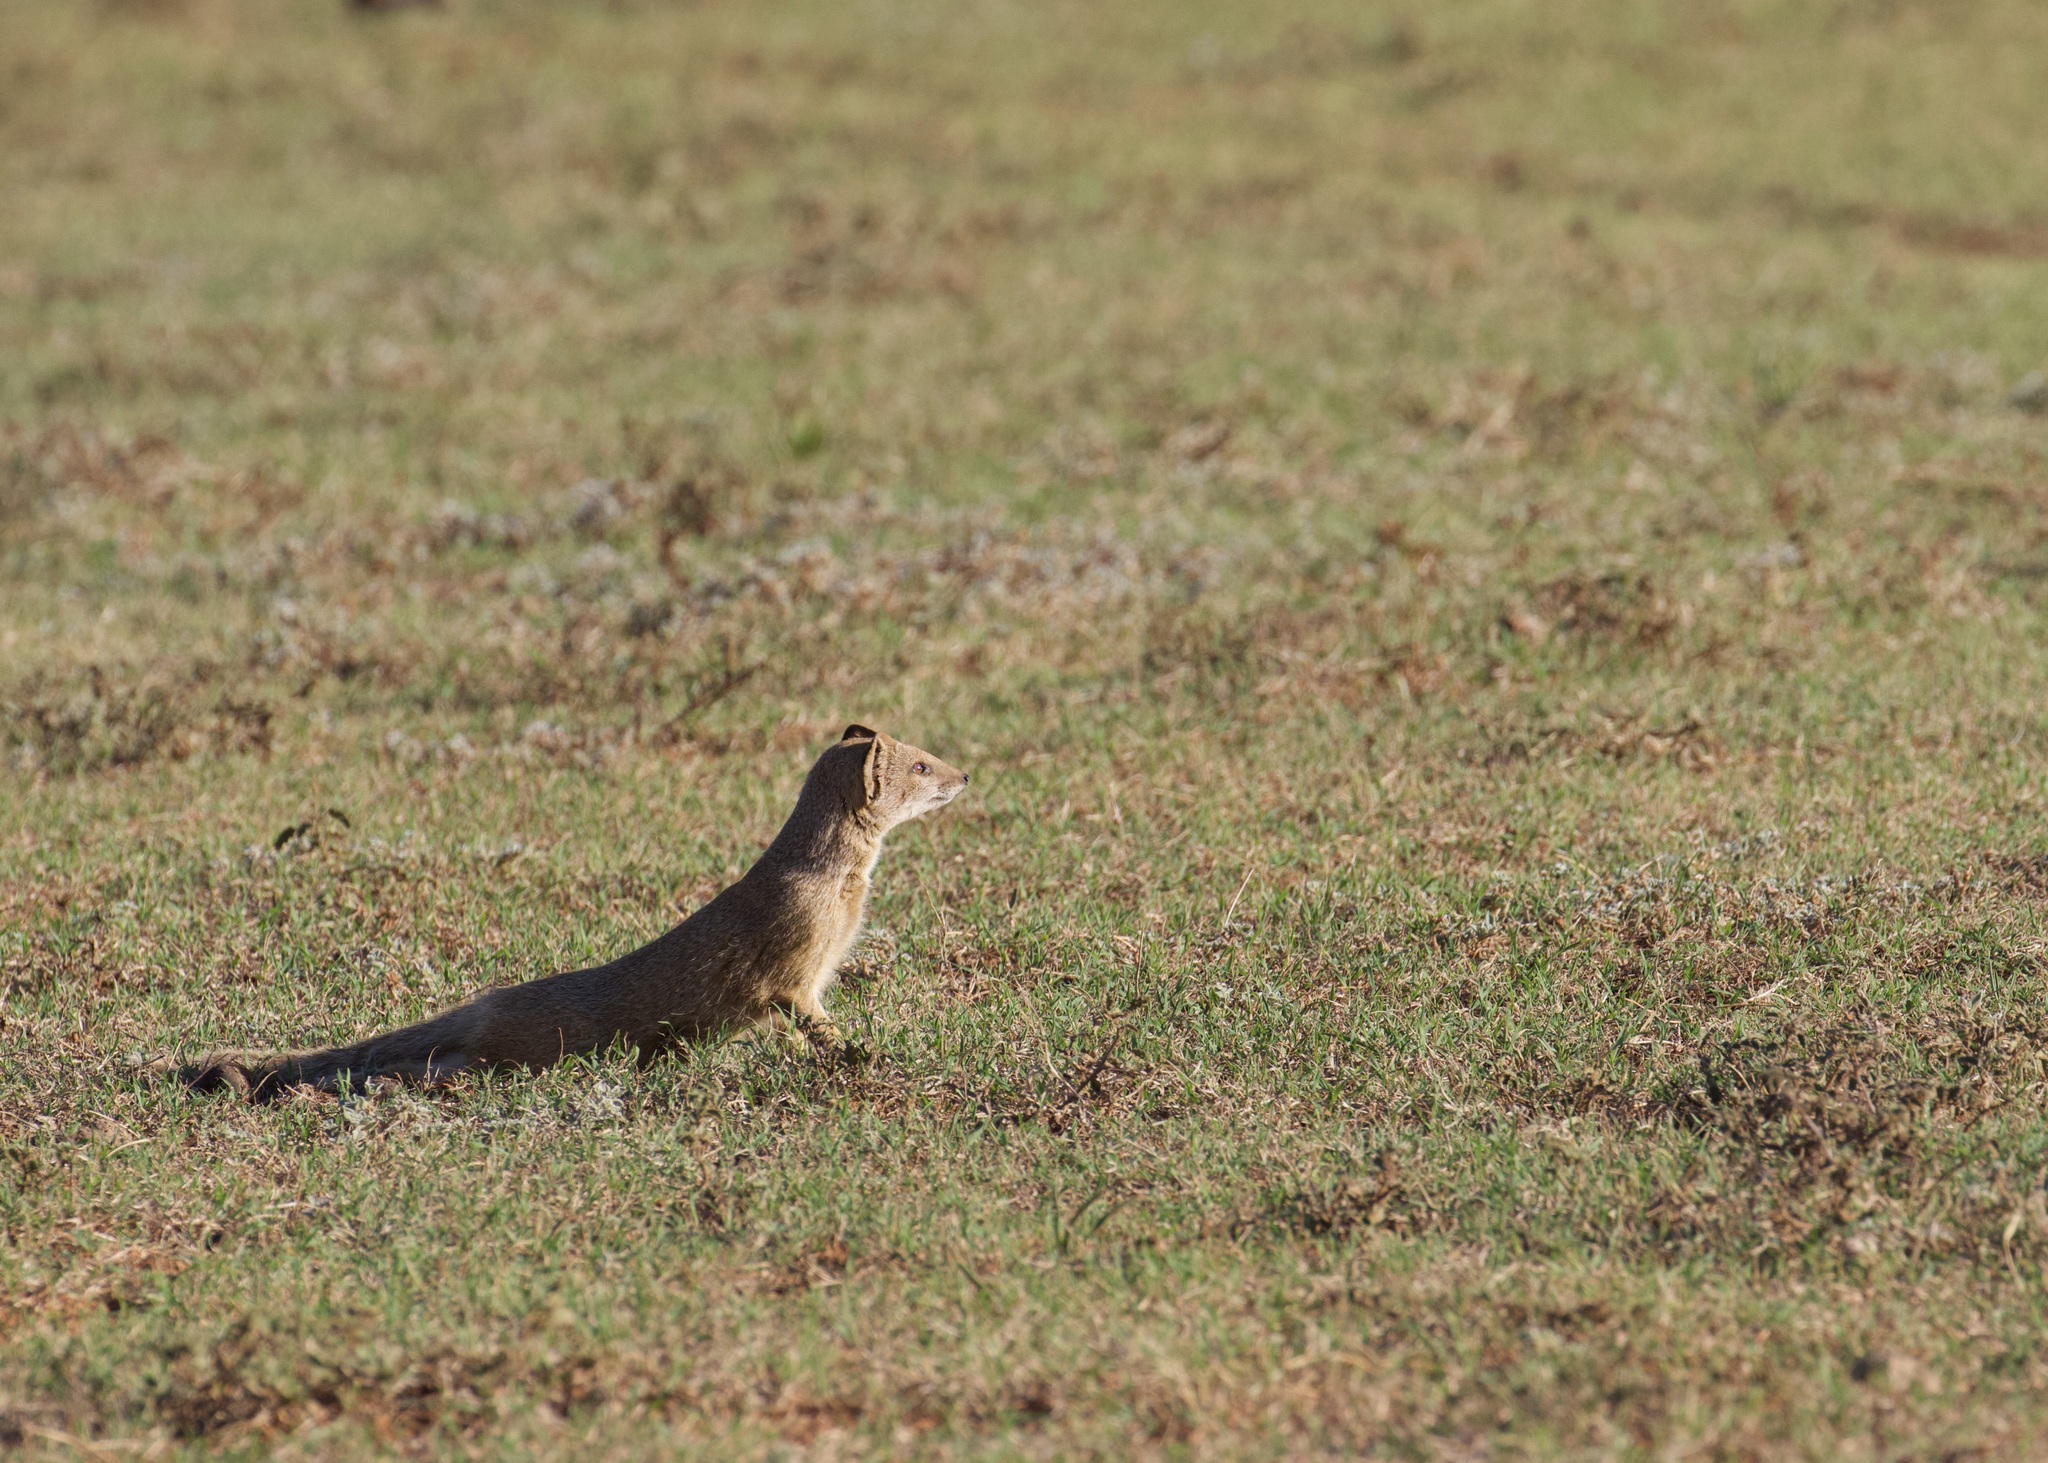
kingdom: Animalia
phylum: Chordata
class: Mammalia
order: Carnivora
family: Herpestidae
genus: Cynictis
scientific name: Cynictis penicillata
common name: Yellow mongoose
